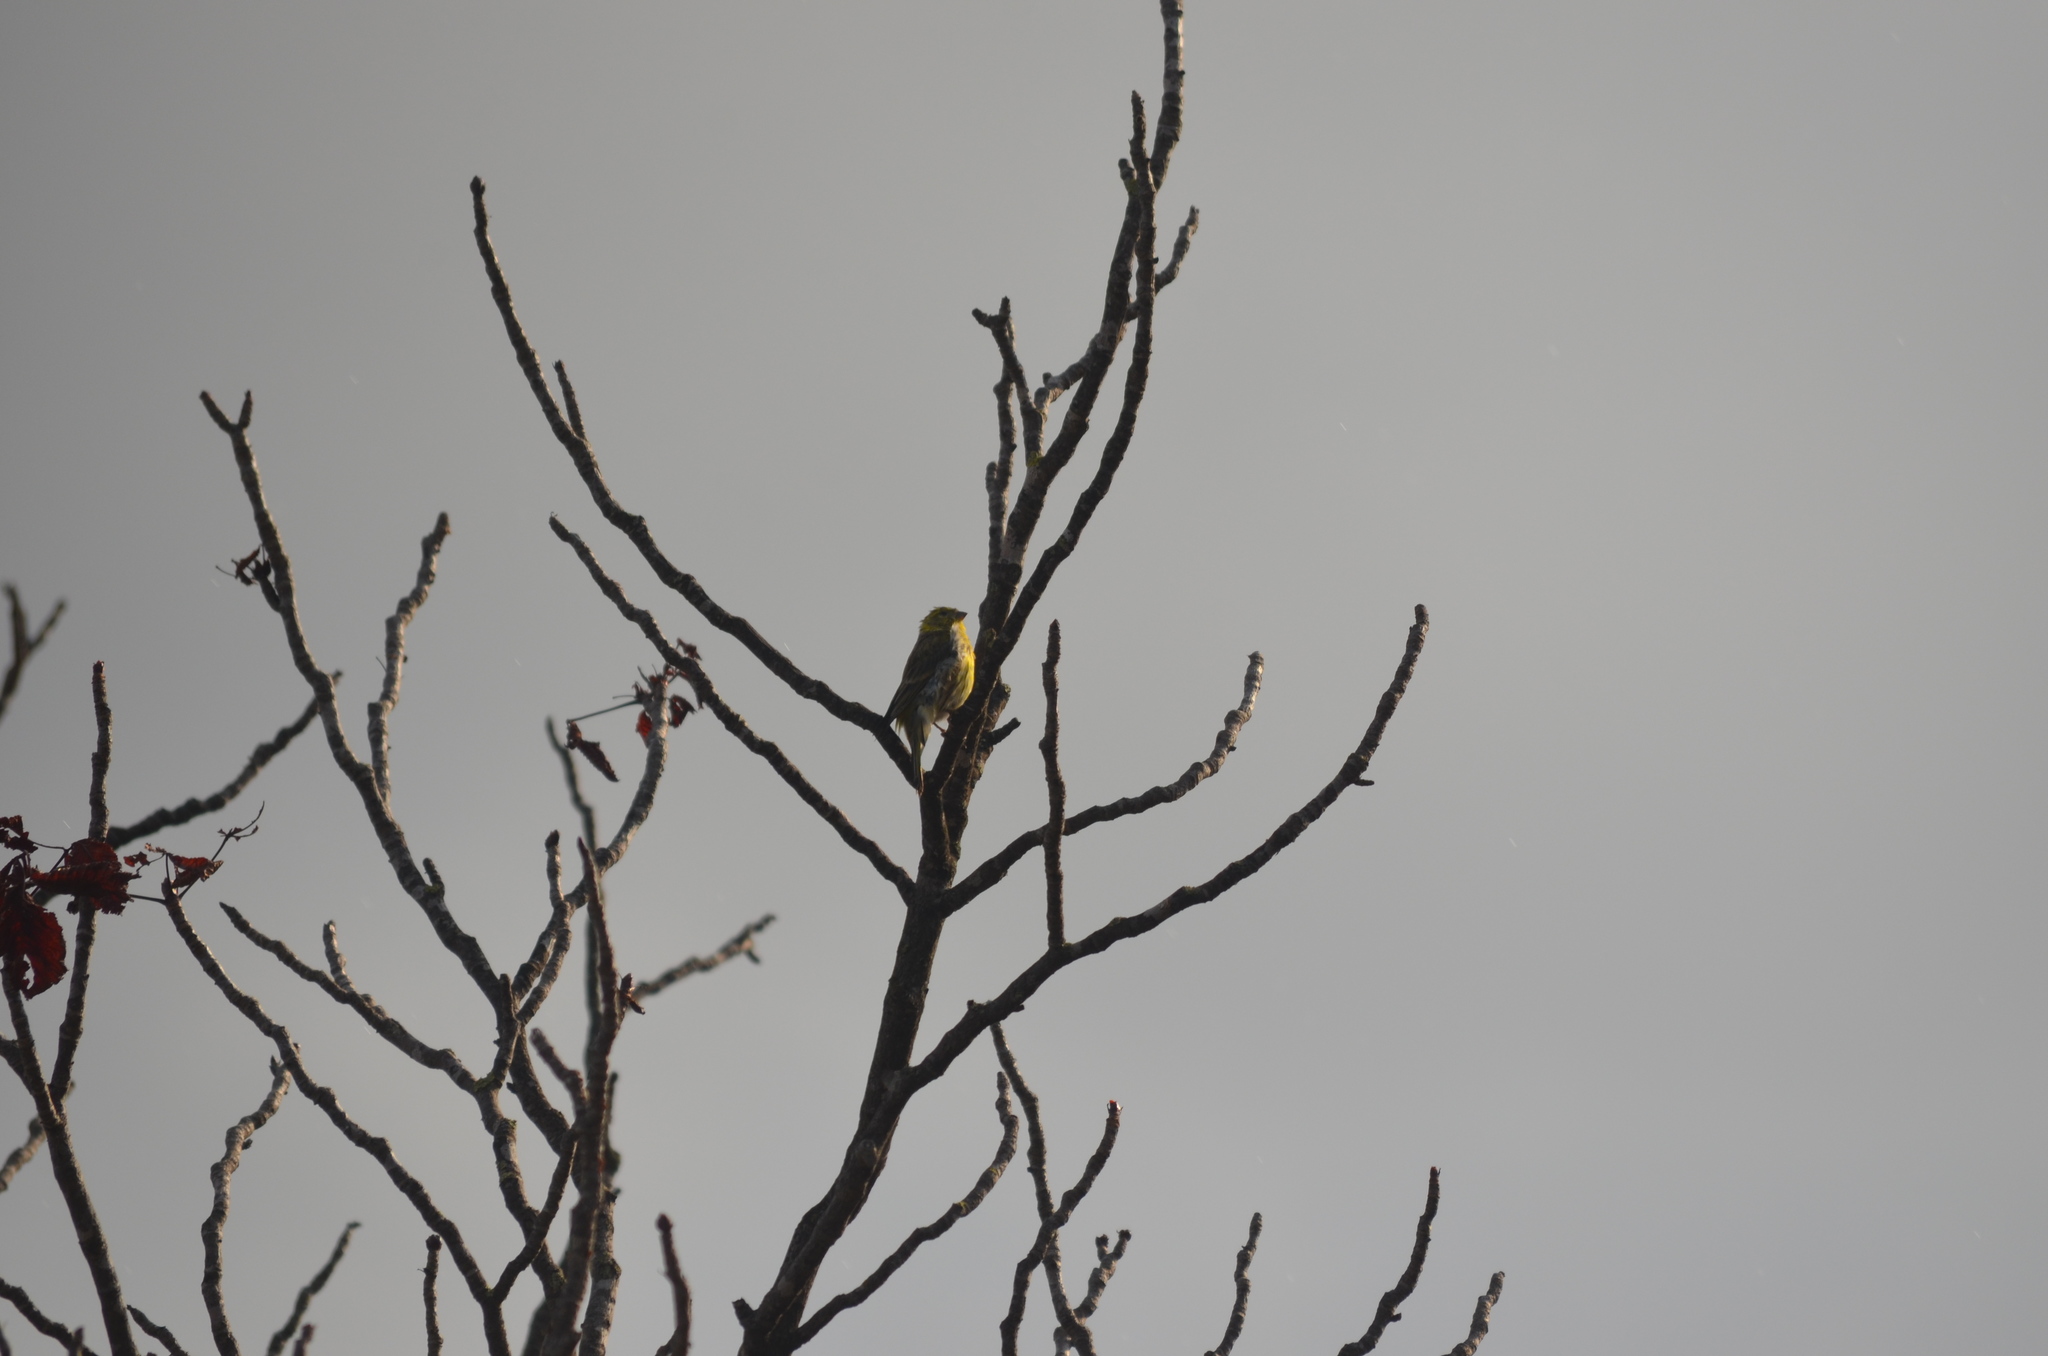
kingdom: Animalia
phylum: Chordata
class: Aves
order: Passeriformes
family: Fringillidae
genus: Serinus
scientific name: Serinus serinus
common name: European serin
